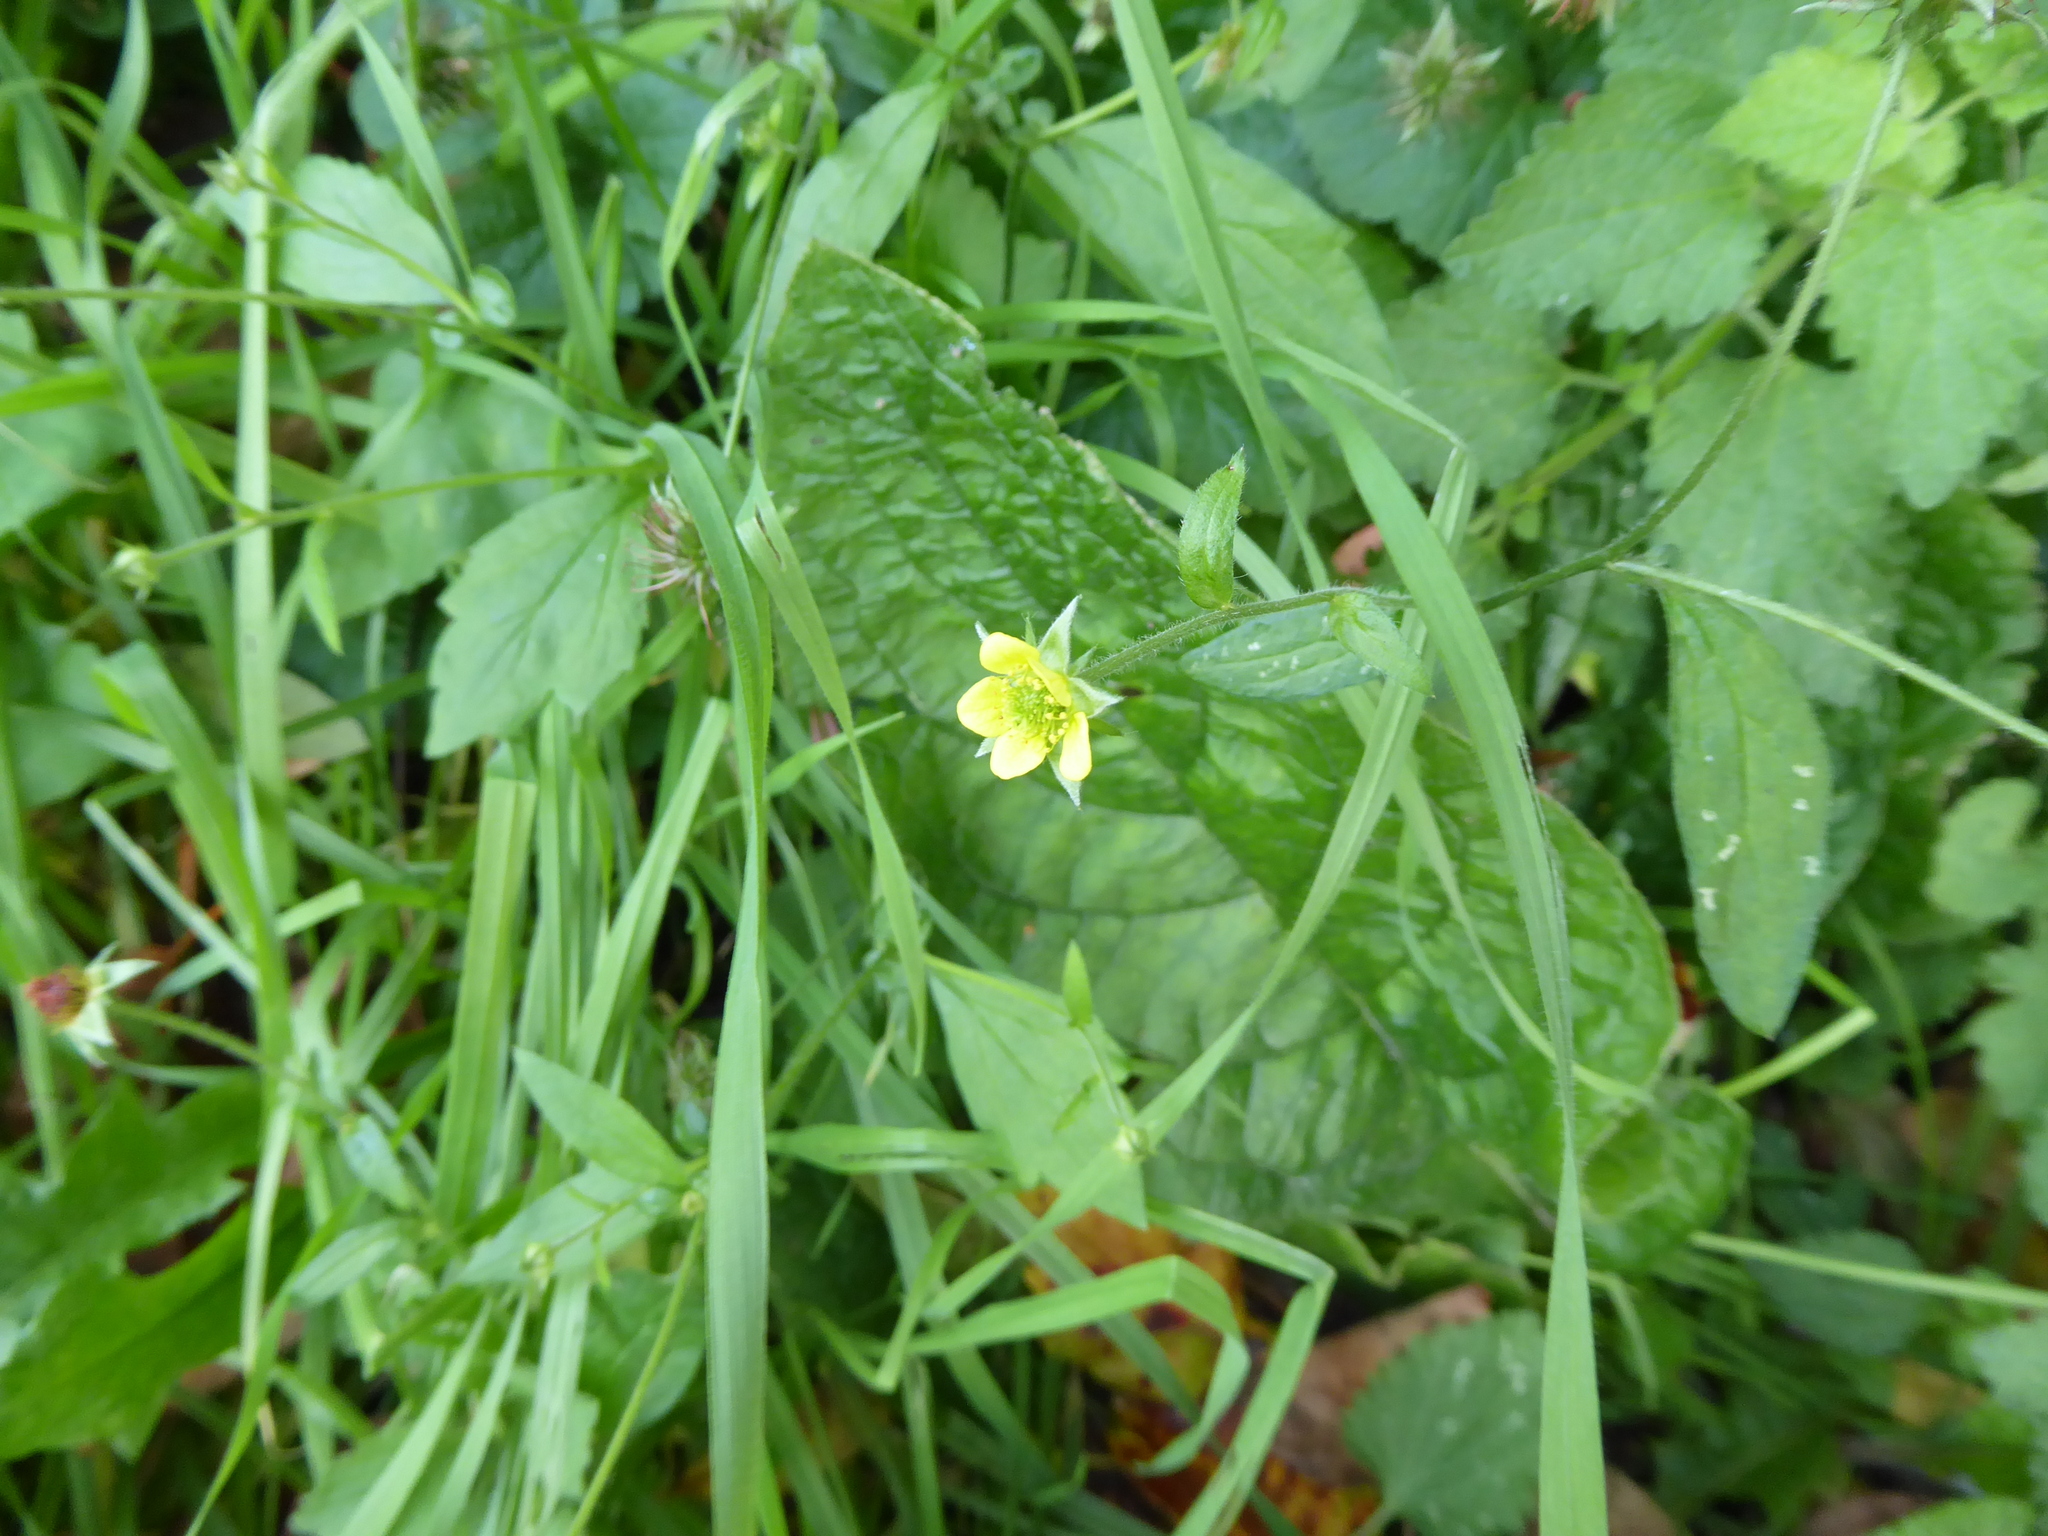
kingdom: Plantae
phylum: Tracheophyta
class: Magnoliopsida
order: Rosales
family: Rosaceae
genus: Geum
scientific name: Geum urbanum
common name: Wood avens
